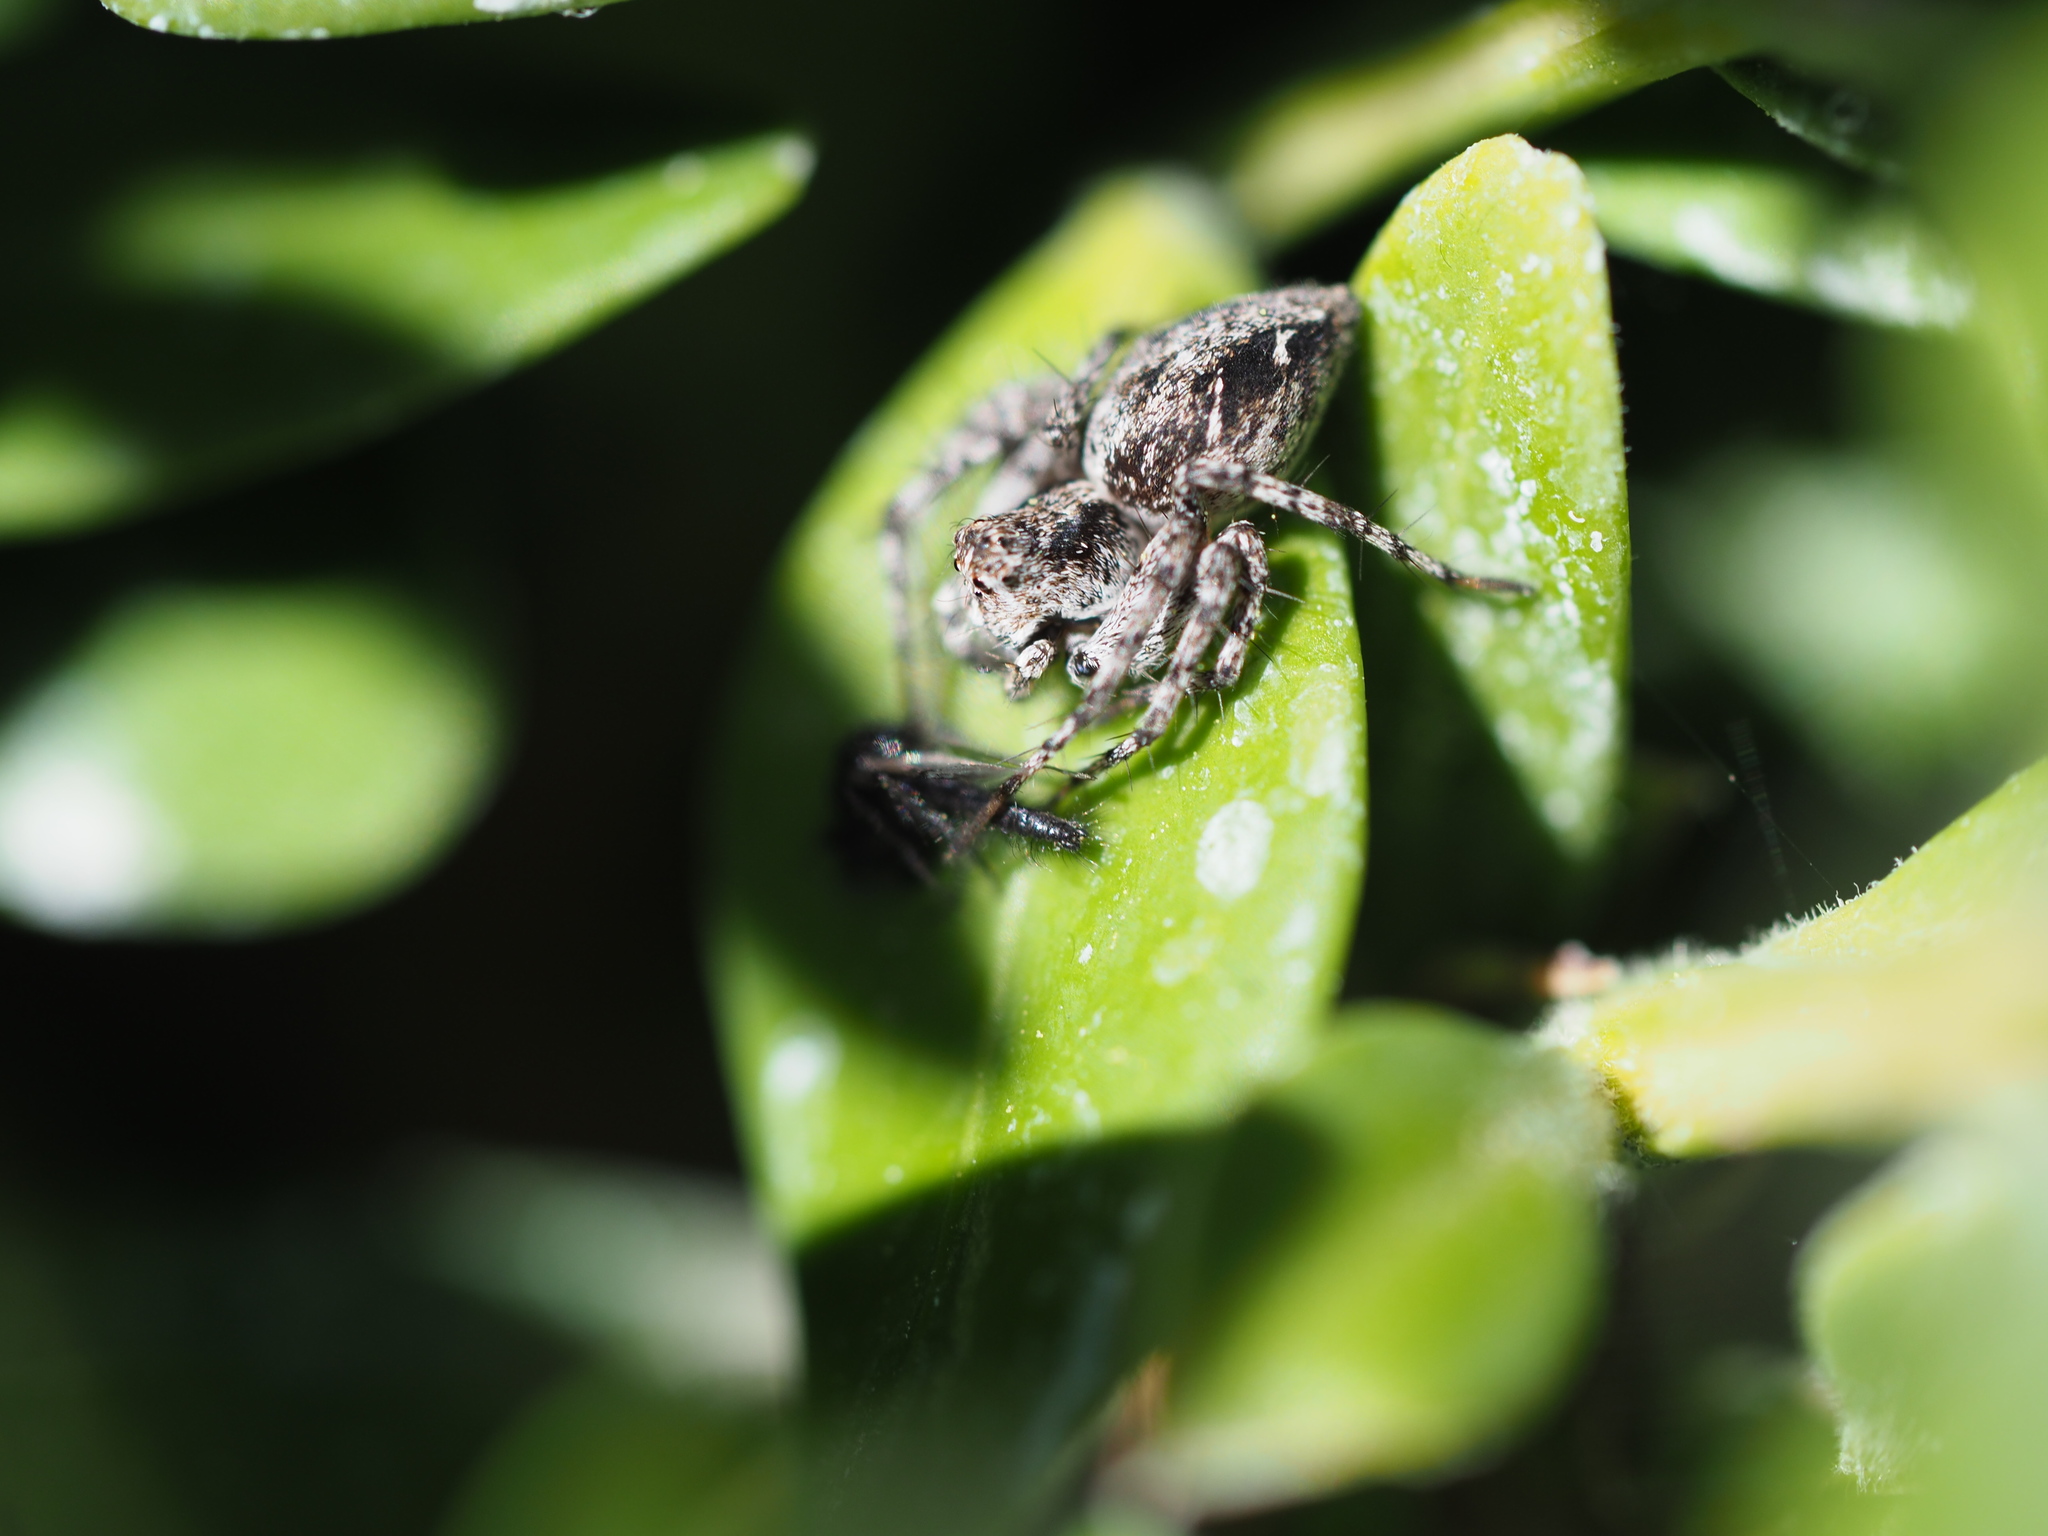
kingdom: Animalia
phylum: Arthropoda
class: Arachnida
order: Araneae
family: Oxyopidae
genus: Oxyopes
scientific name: Oxyopes scalaris
